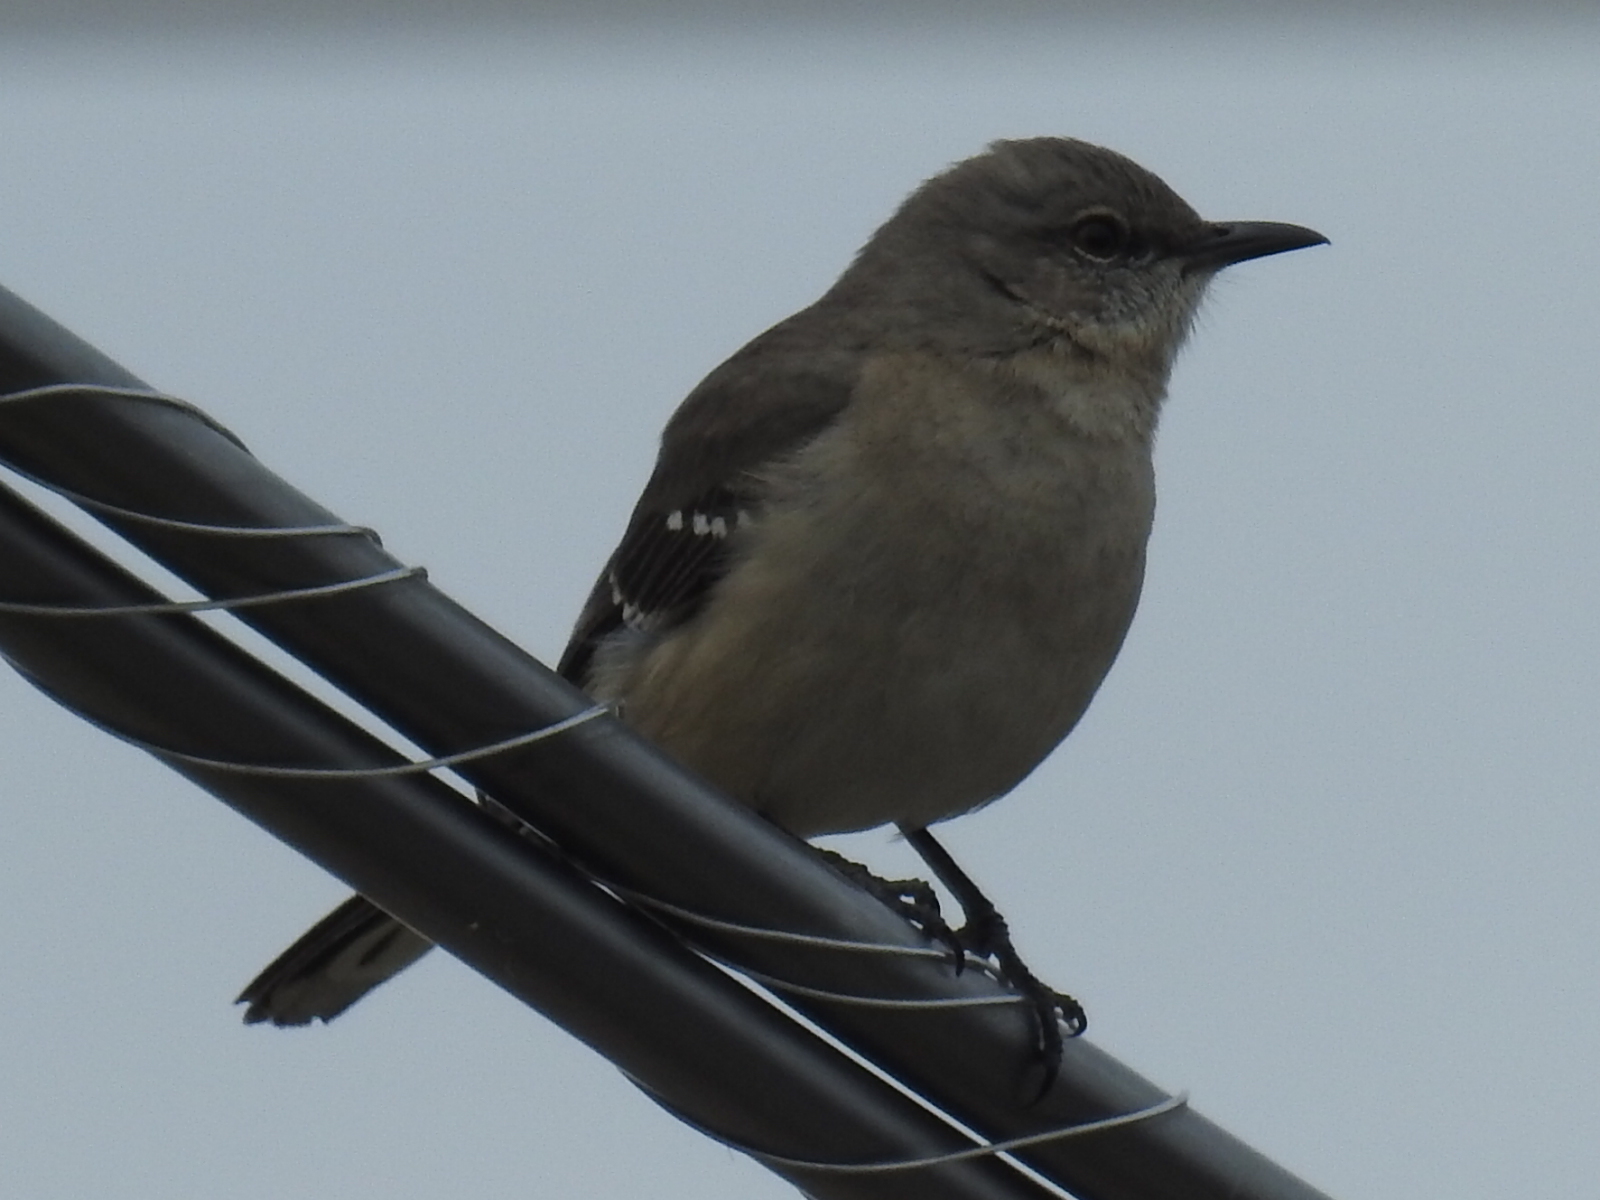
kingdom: Animalia
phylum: Chordata
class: Aves
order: Passeriformes
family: Mimidae
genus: Mimus
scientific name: Mimus polyglottos
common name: Northern mockingbird
